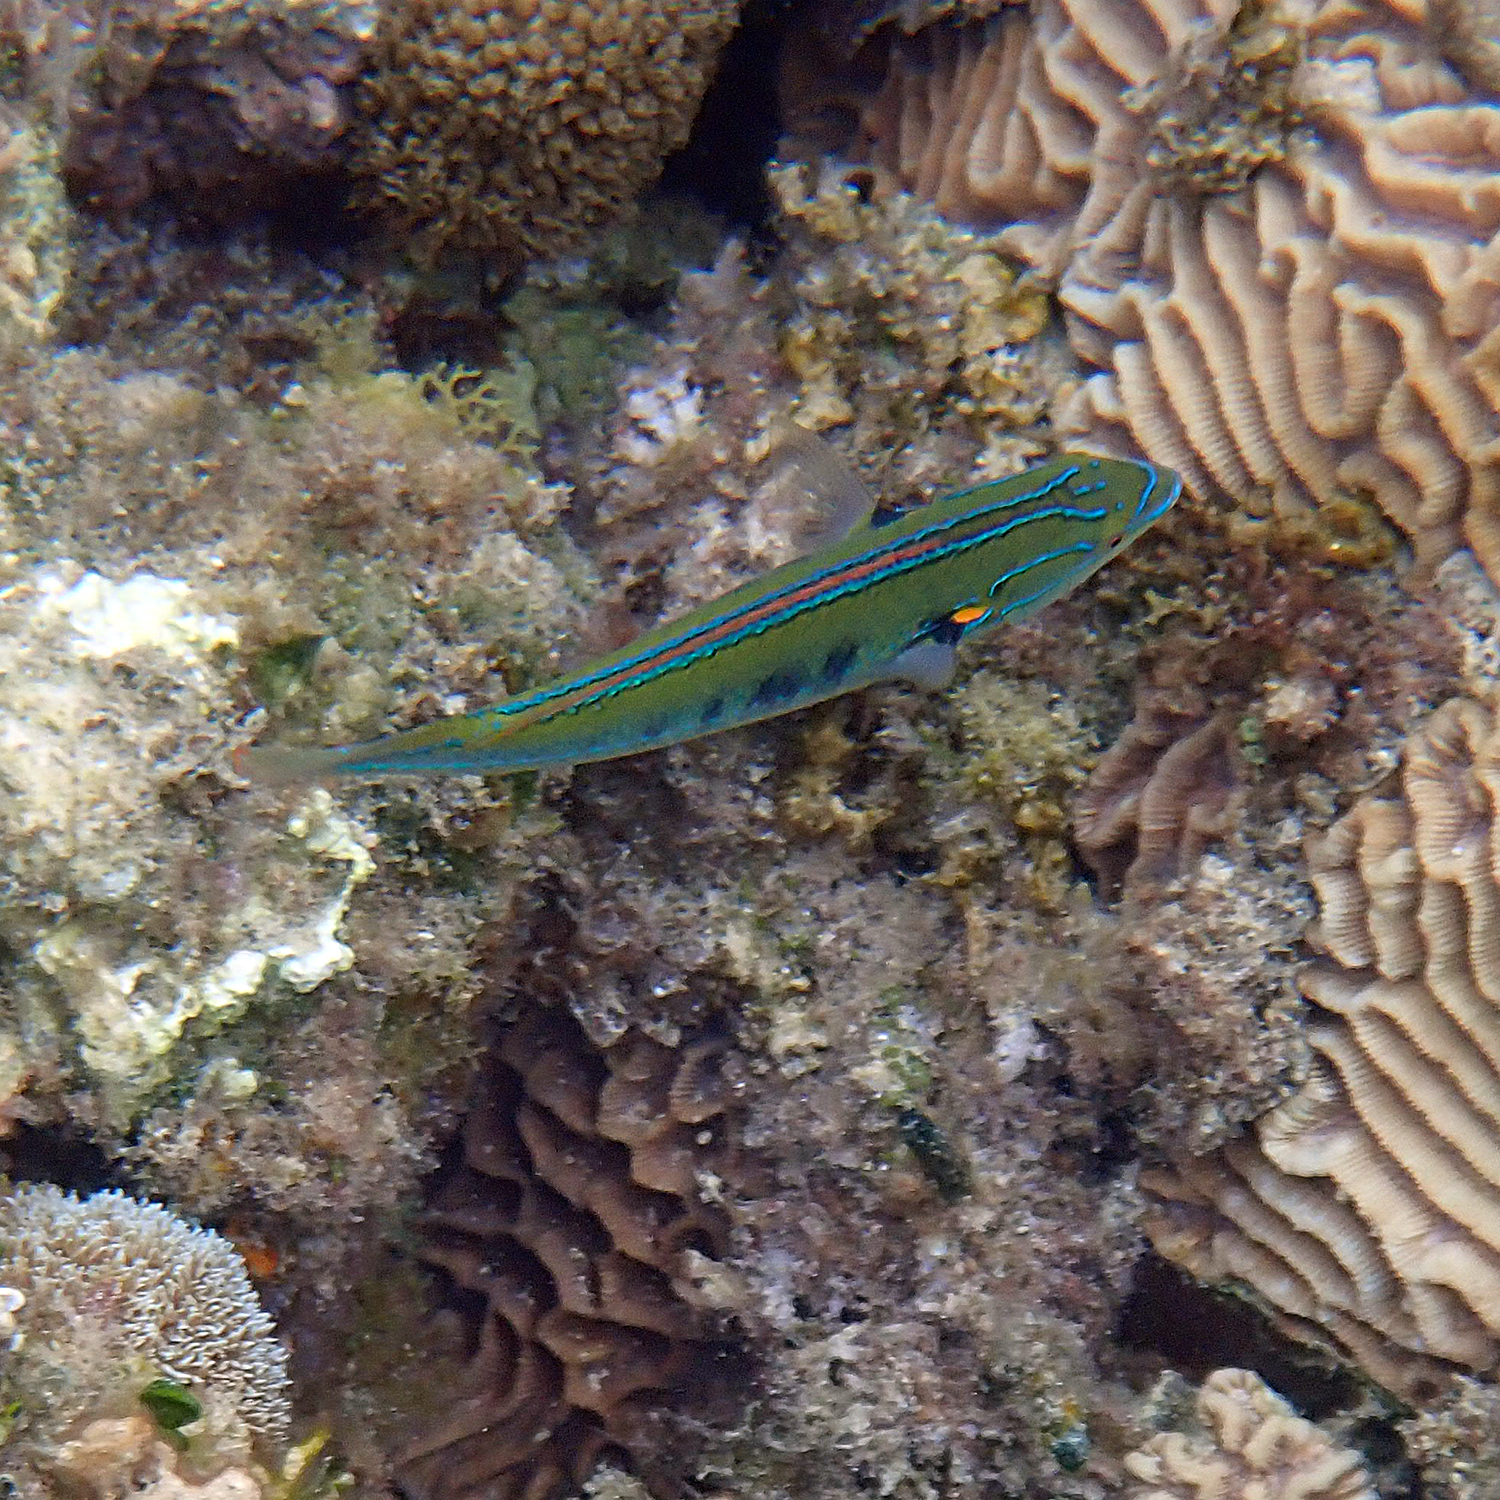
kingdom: Animalia
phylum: Chordata
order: Perciformes
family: Labridae
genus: Stethojulis
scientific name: Stethojulis notialis
